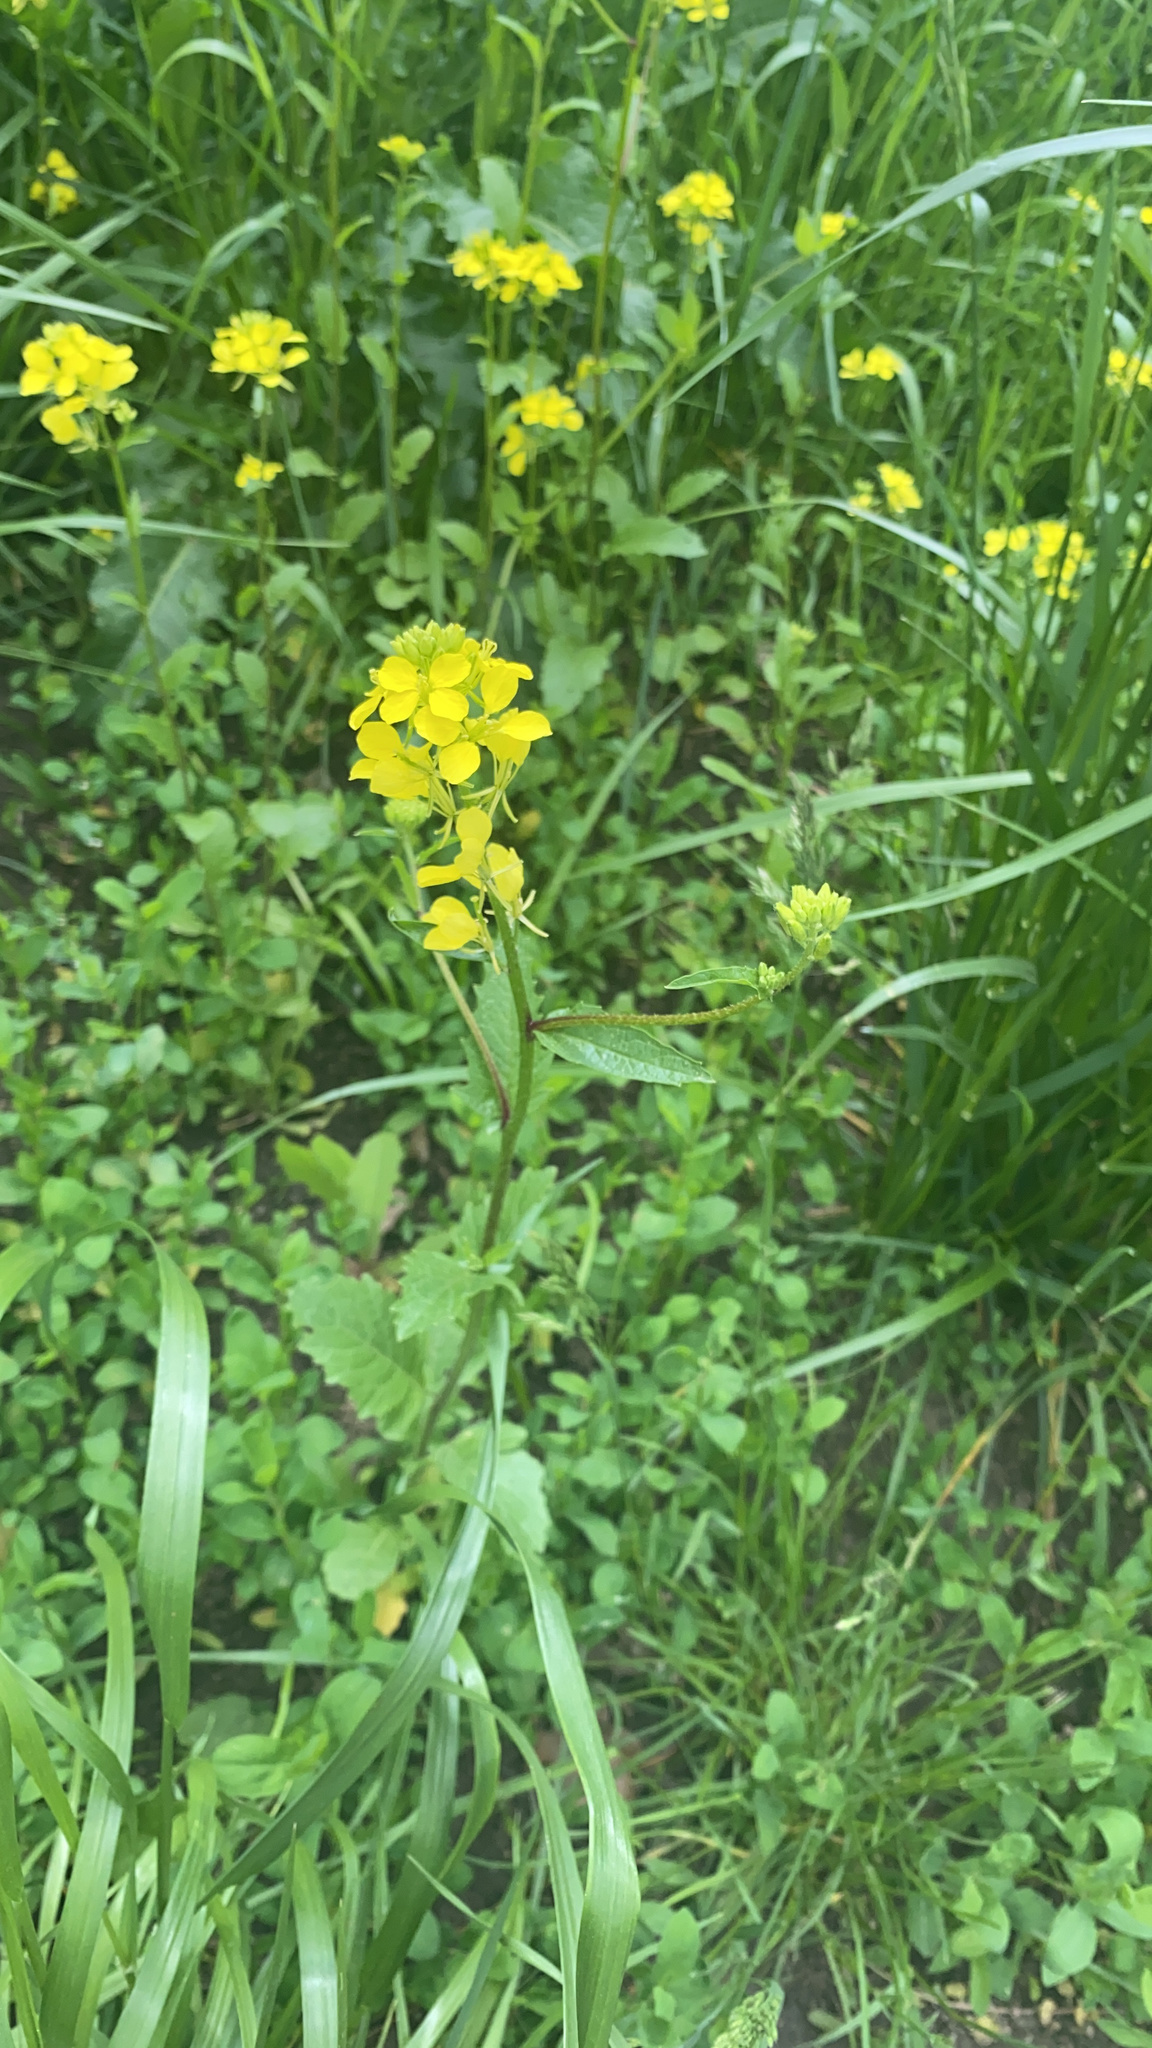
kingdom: Plantae
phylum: Tracheophyta
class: Magnoliopsida
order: Brassicales
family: Brassicaceae
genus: Sinapis
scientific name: Sinapis arvensis
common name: Charlock
